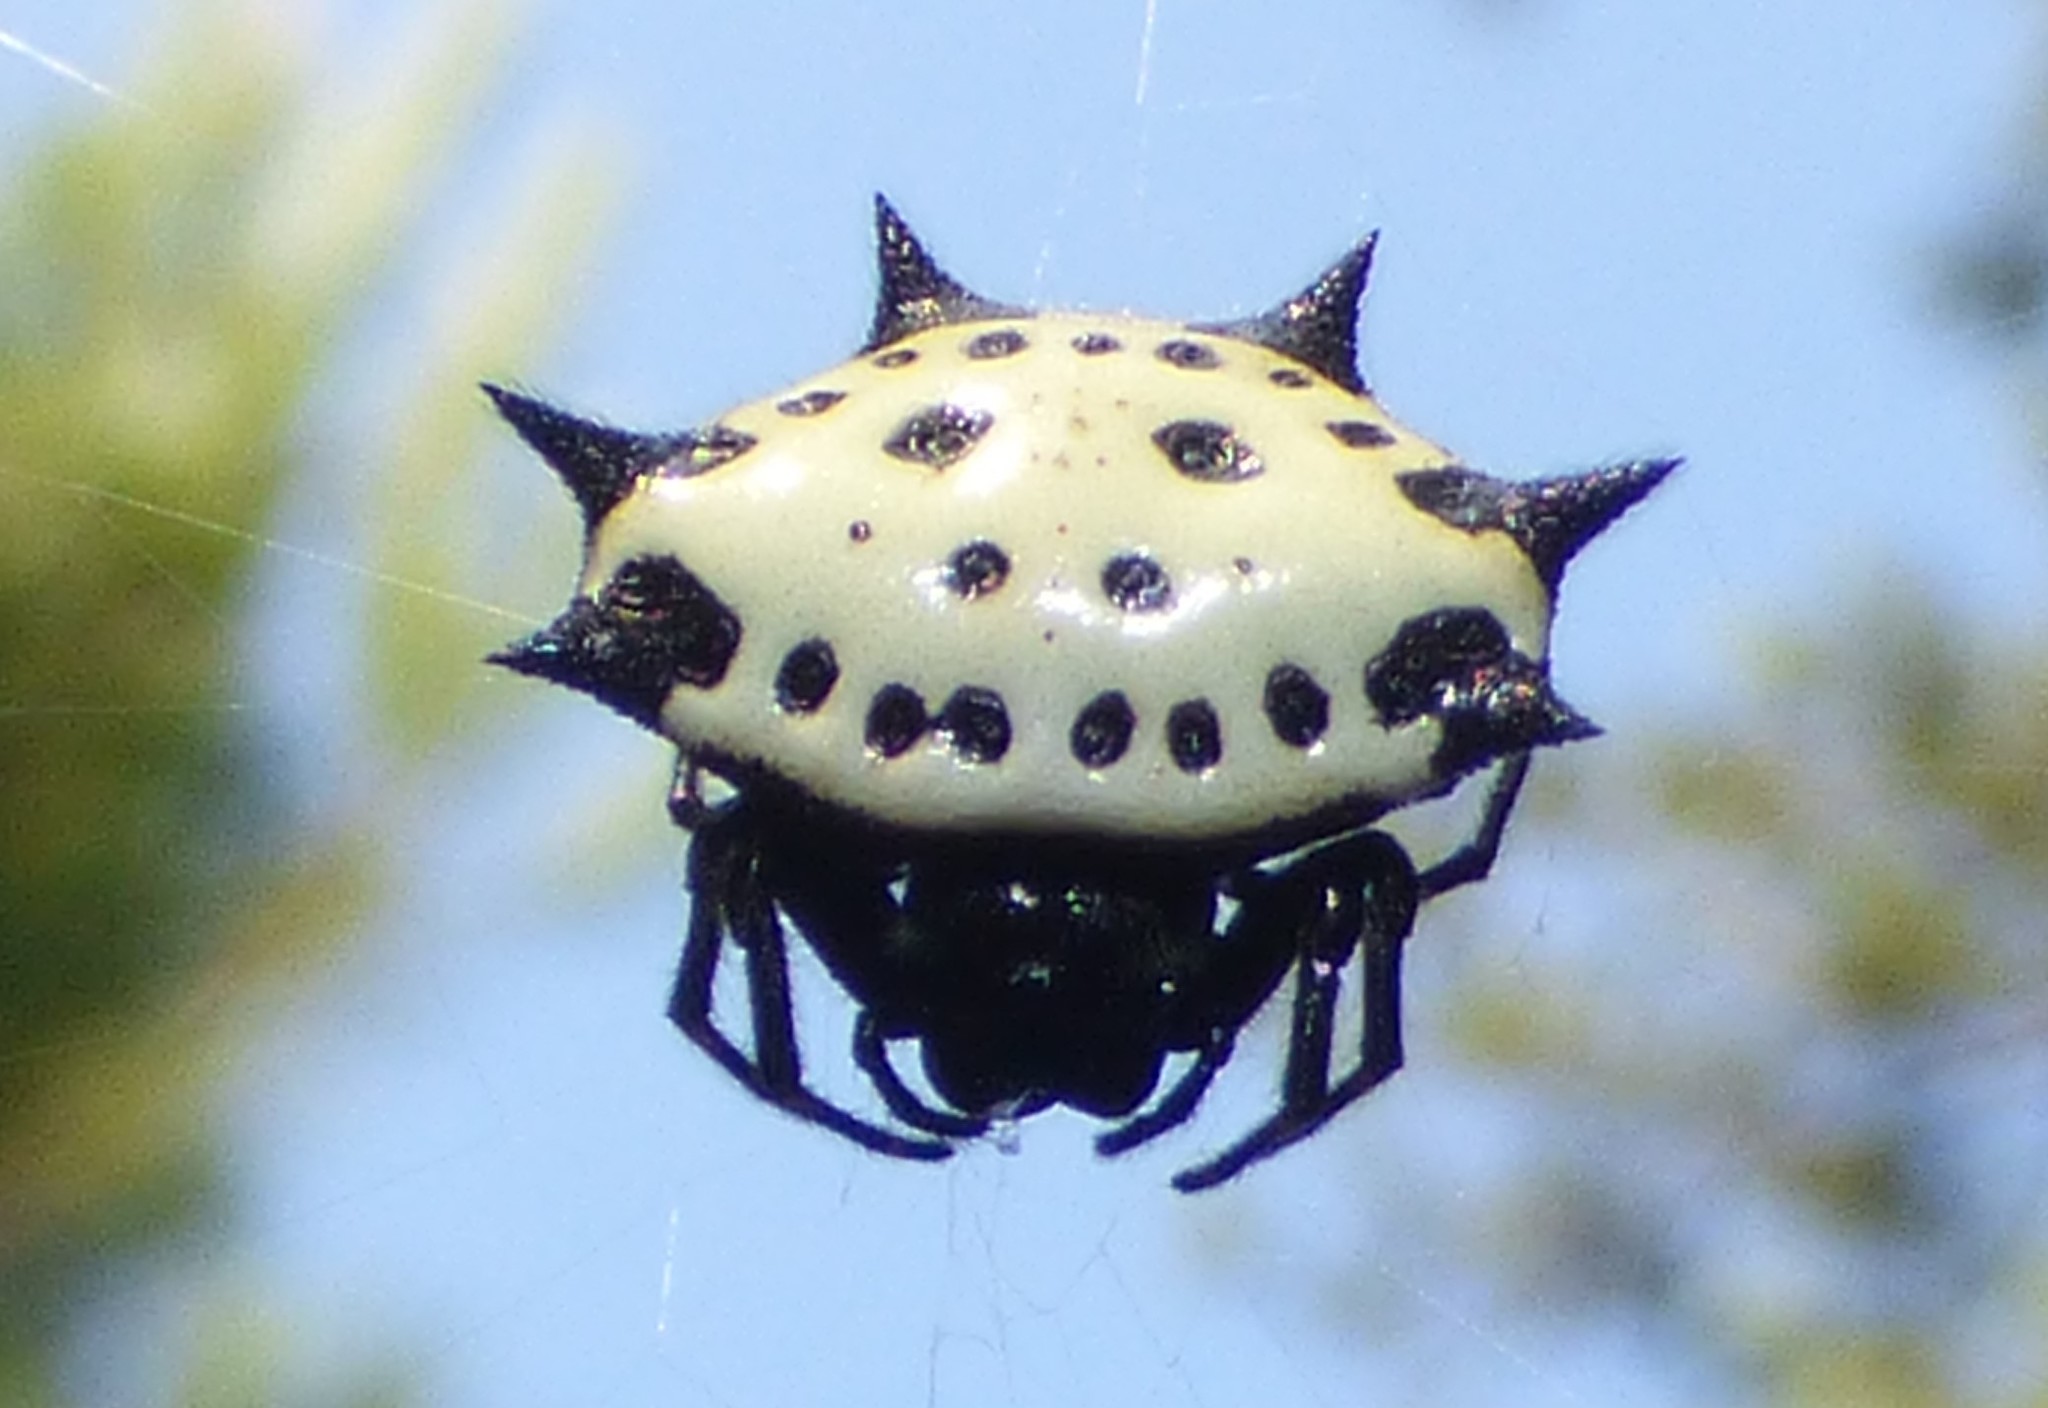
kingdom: Animalia
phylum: Arthropoda
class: Arachnida
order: Araneae
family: Araneidae
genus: Gasteracantha
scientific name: Gasteracantha cancriformis
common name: Orb weavers
